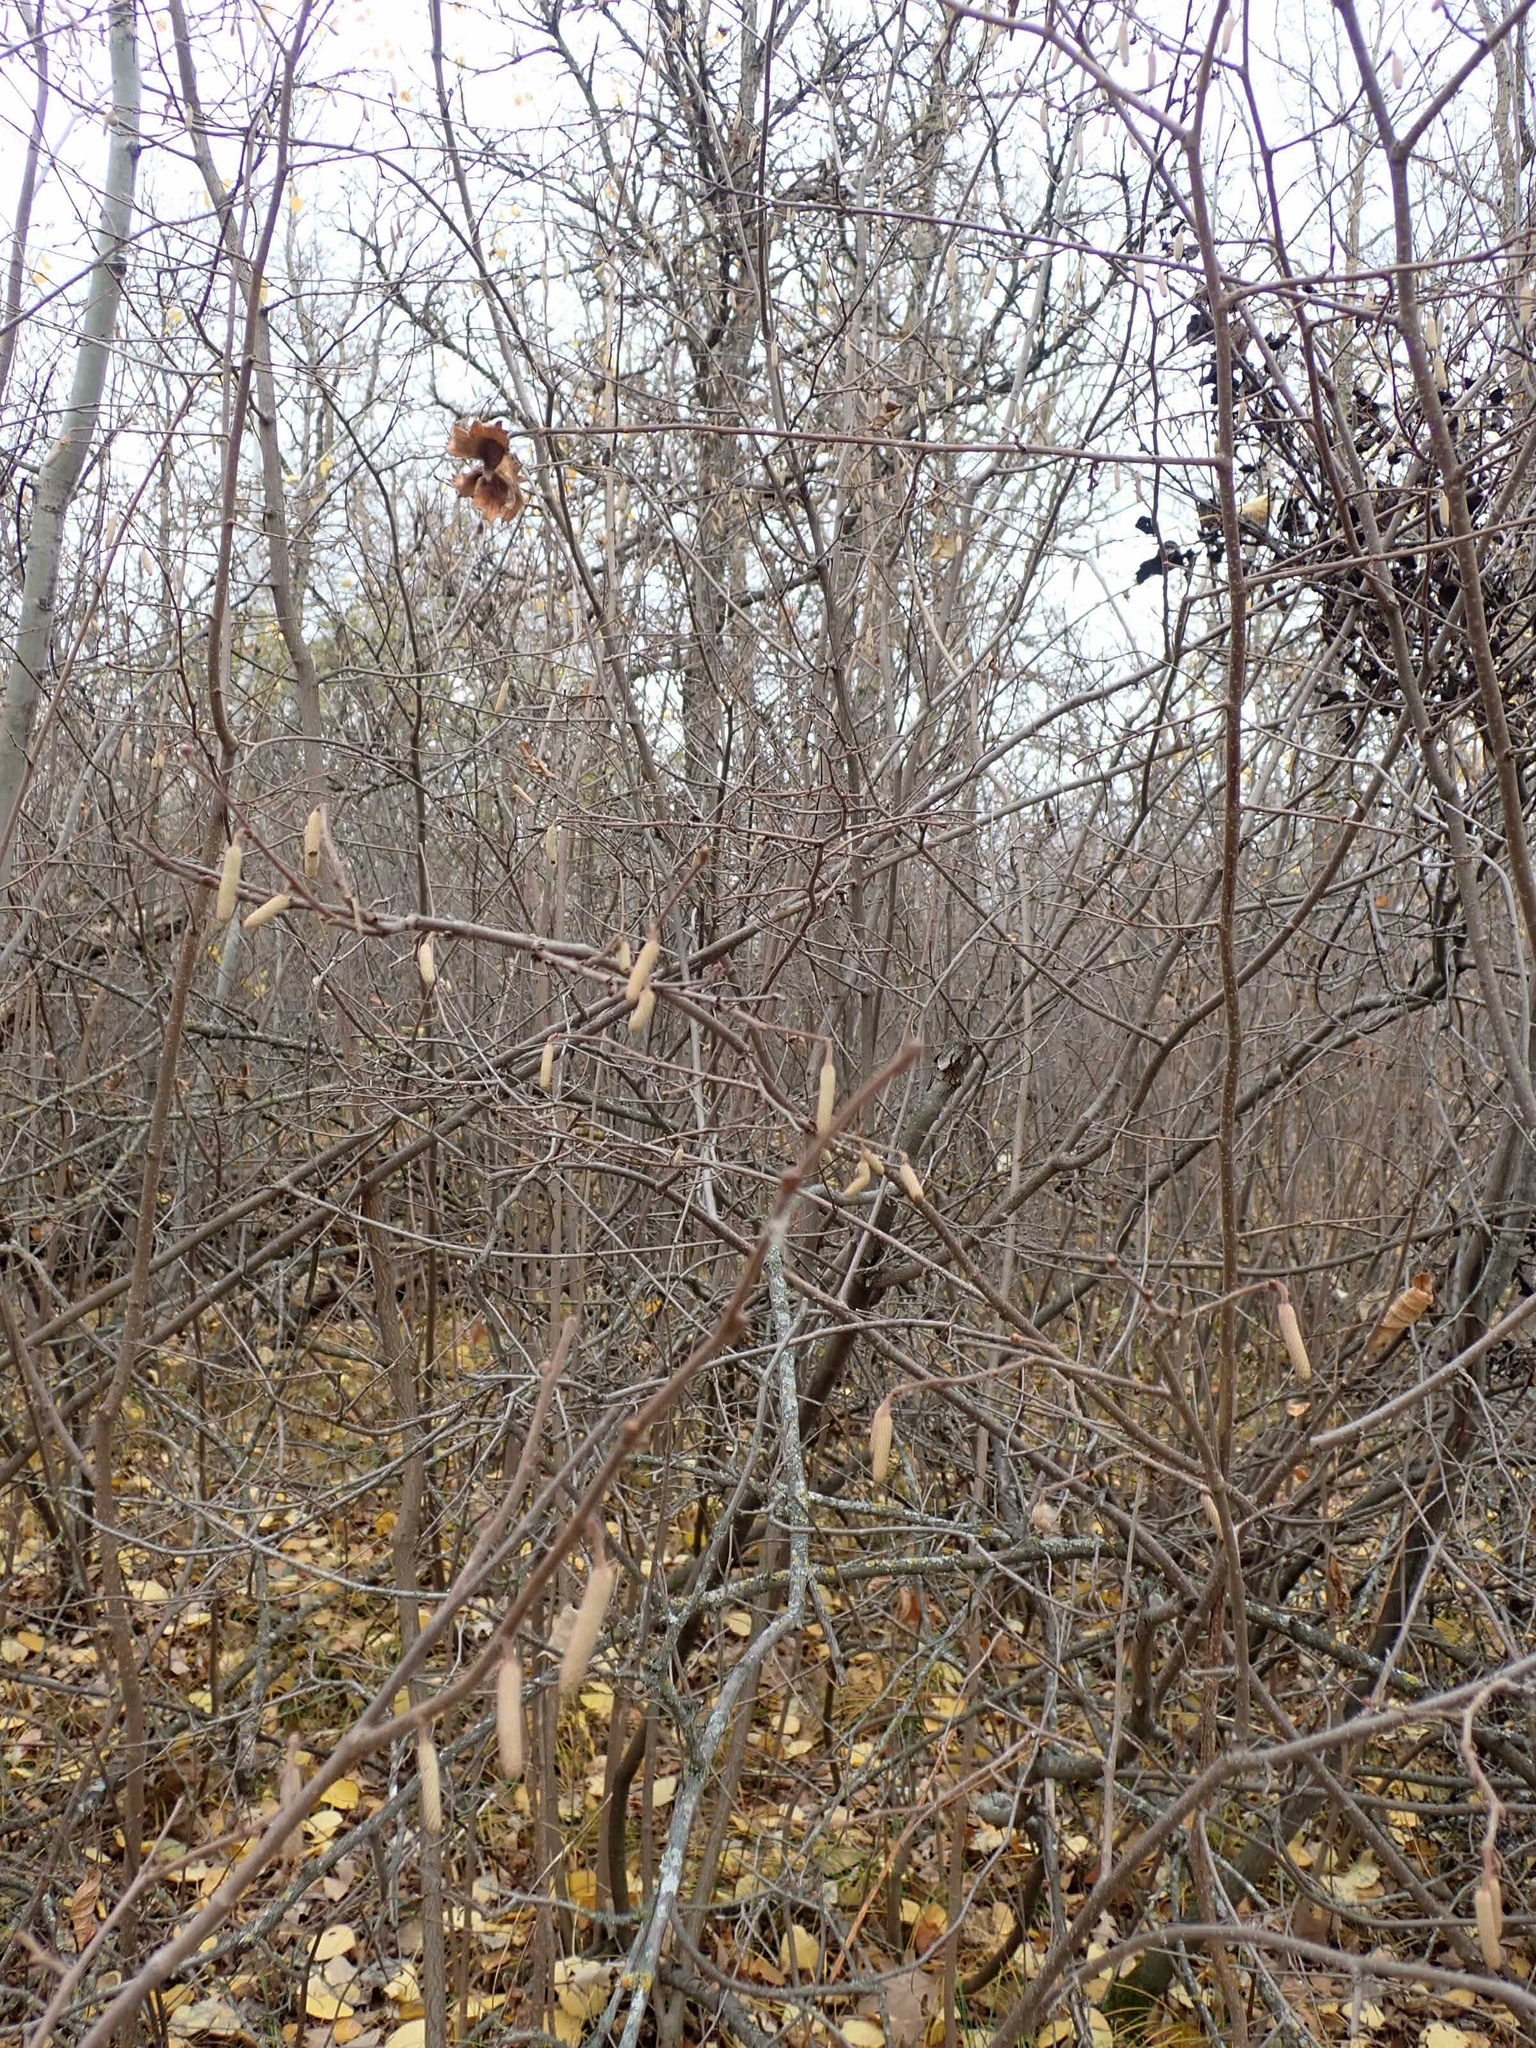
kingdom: Plantae
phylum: Tracheophyta
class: Magnoliopsida
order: Fagales
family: Betulaceae
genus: Corylus
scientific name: Corylus americana
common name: American hazel
